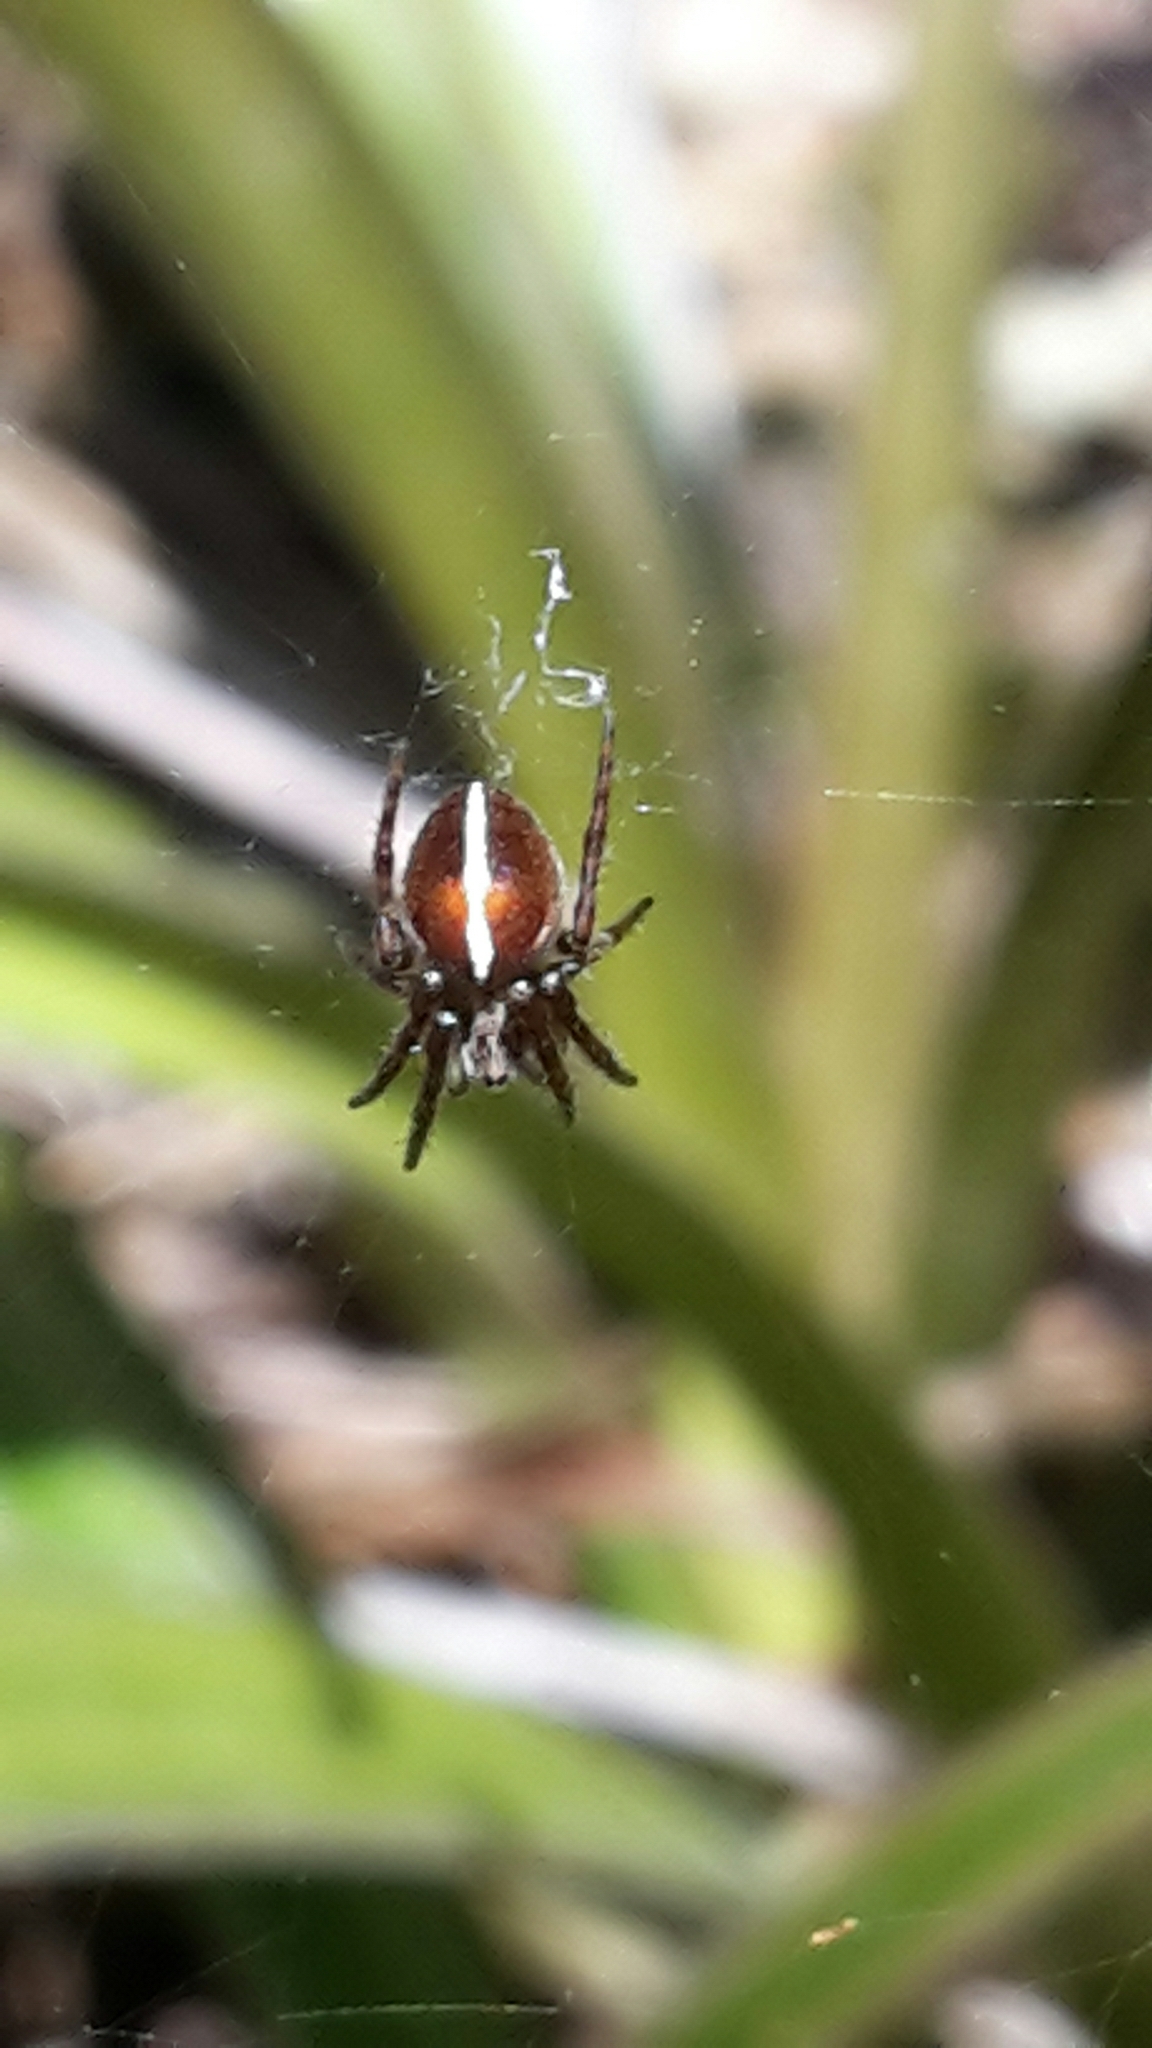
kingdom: Animalia
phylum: Arthropoda
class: Arachnida
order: Araneae
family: Araneidae
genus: Colaranea
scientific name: Colaranea brunnea
